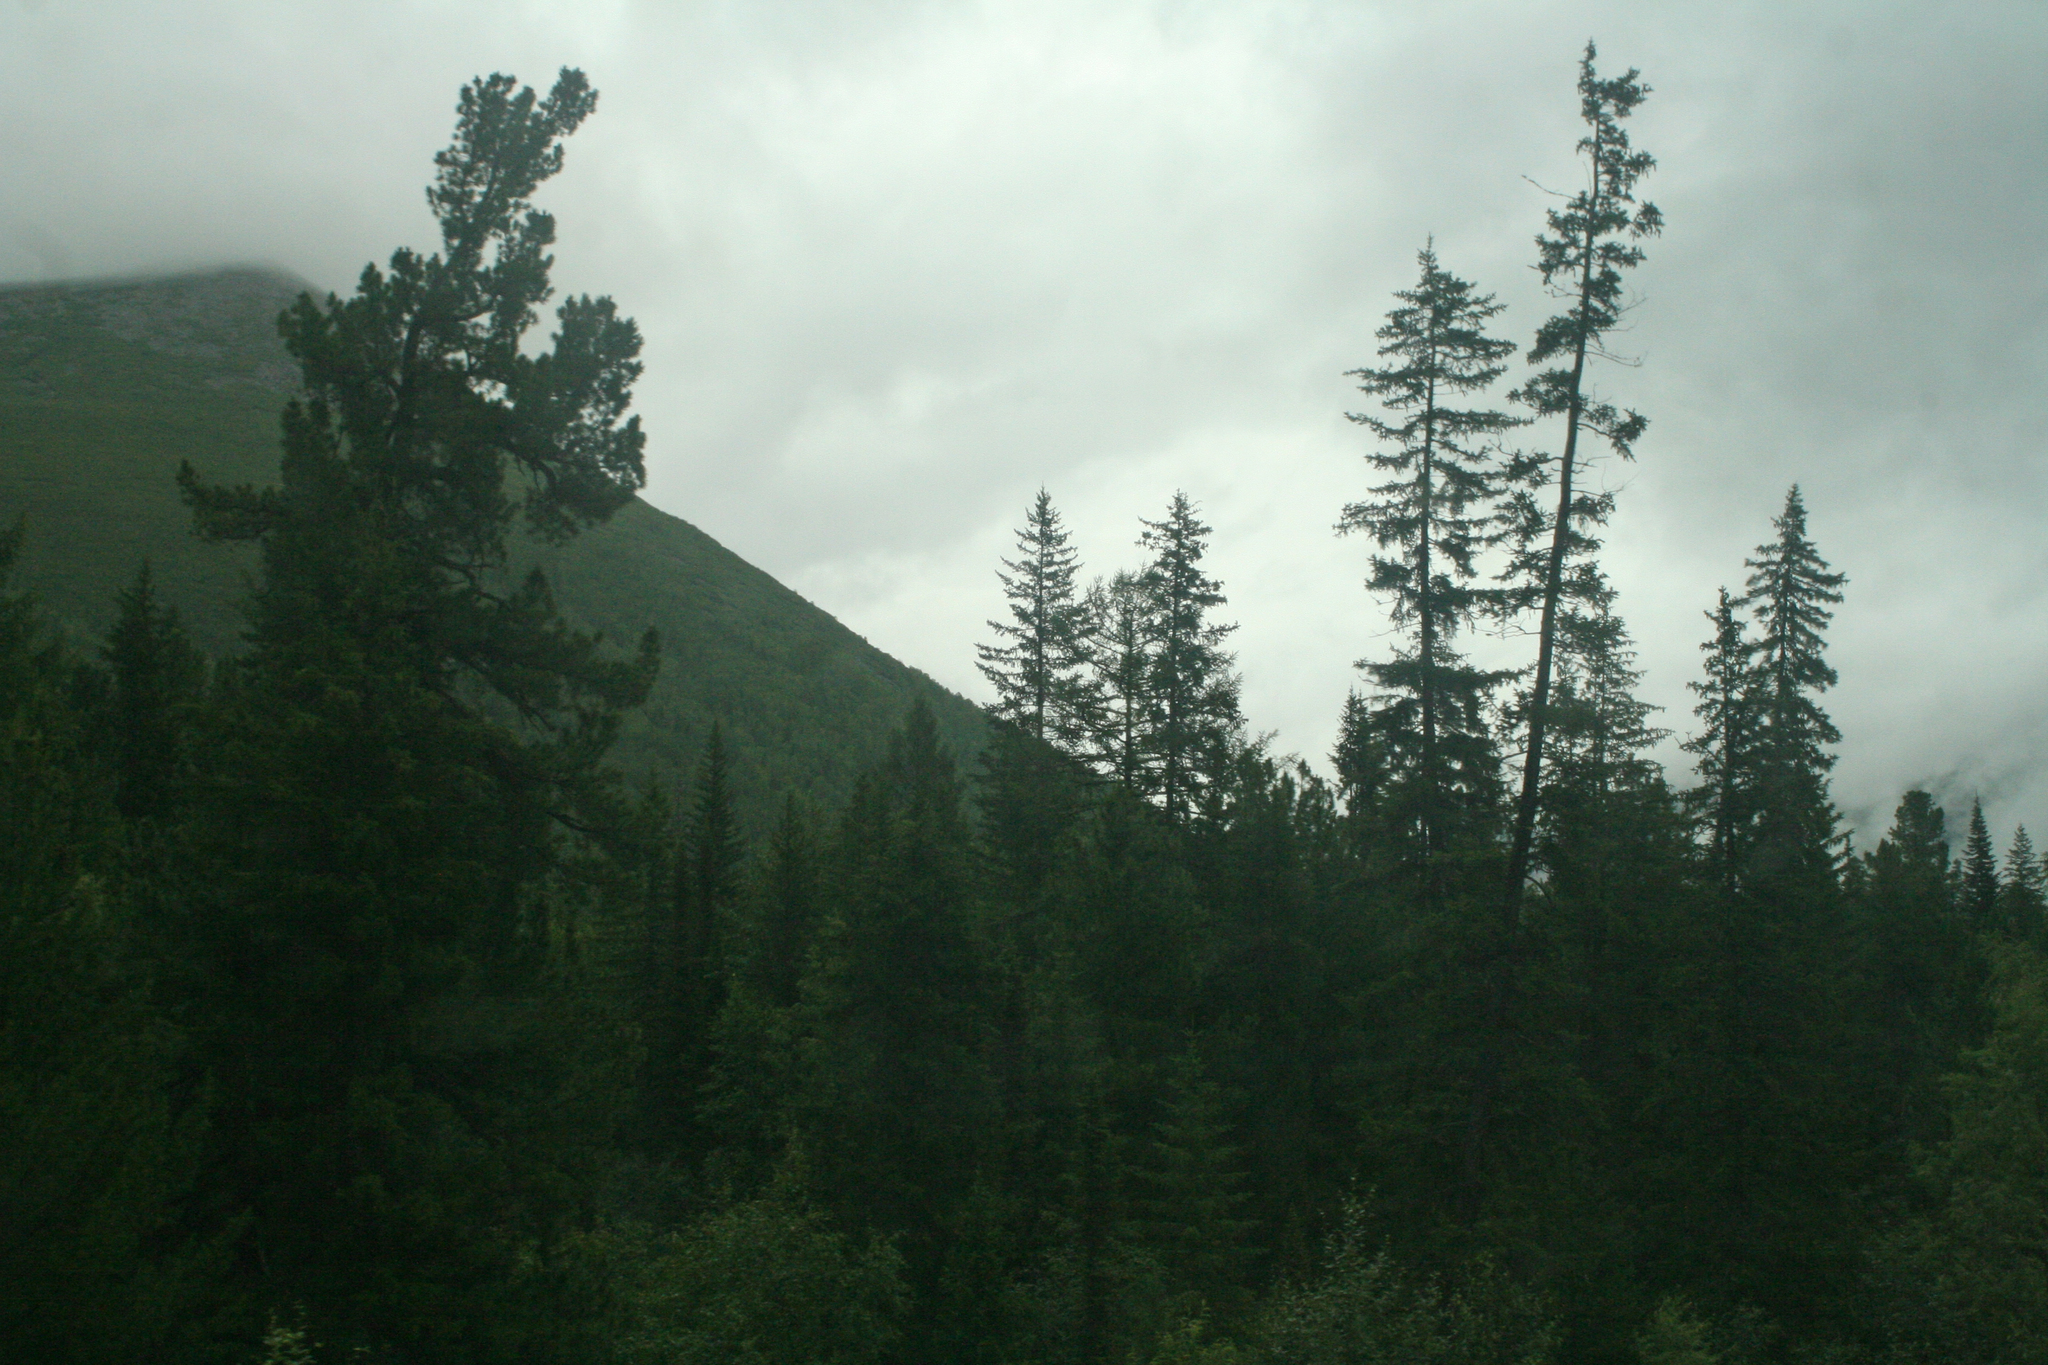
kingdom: Plantae
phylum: Tracheophyta
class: Pinopsida
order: Pinales
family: Pinaceae
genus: Pinus
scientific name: Pinus sibirica
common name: Siberian pine
